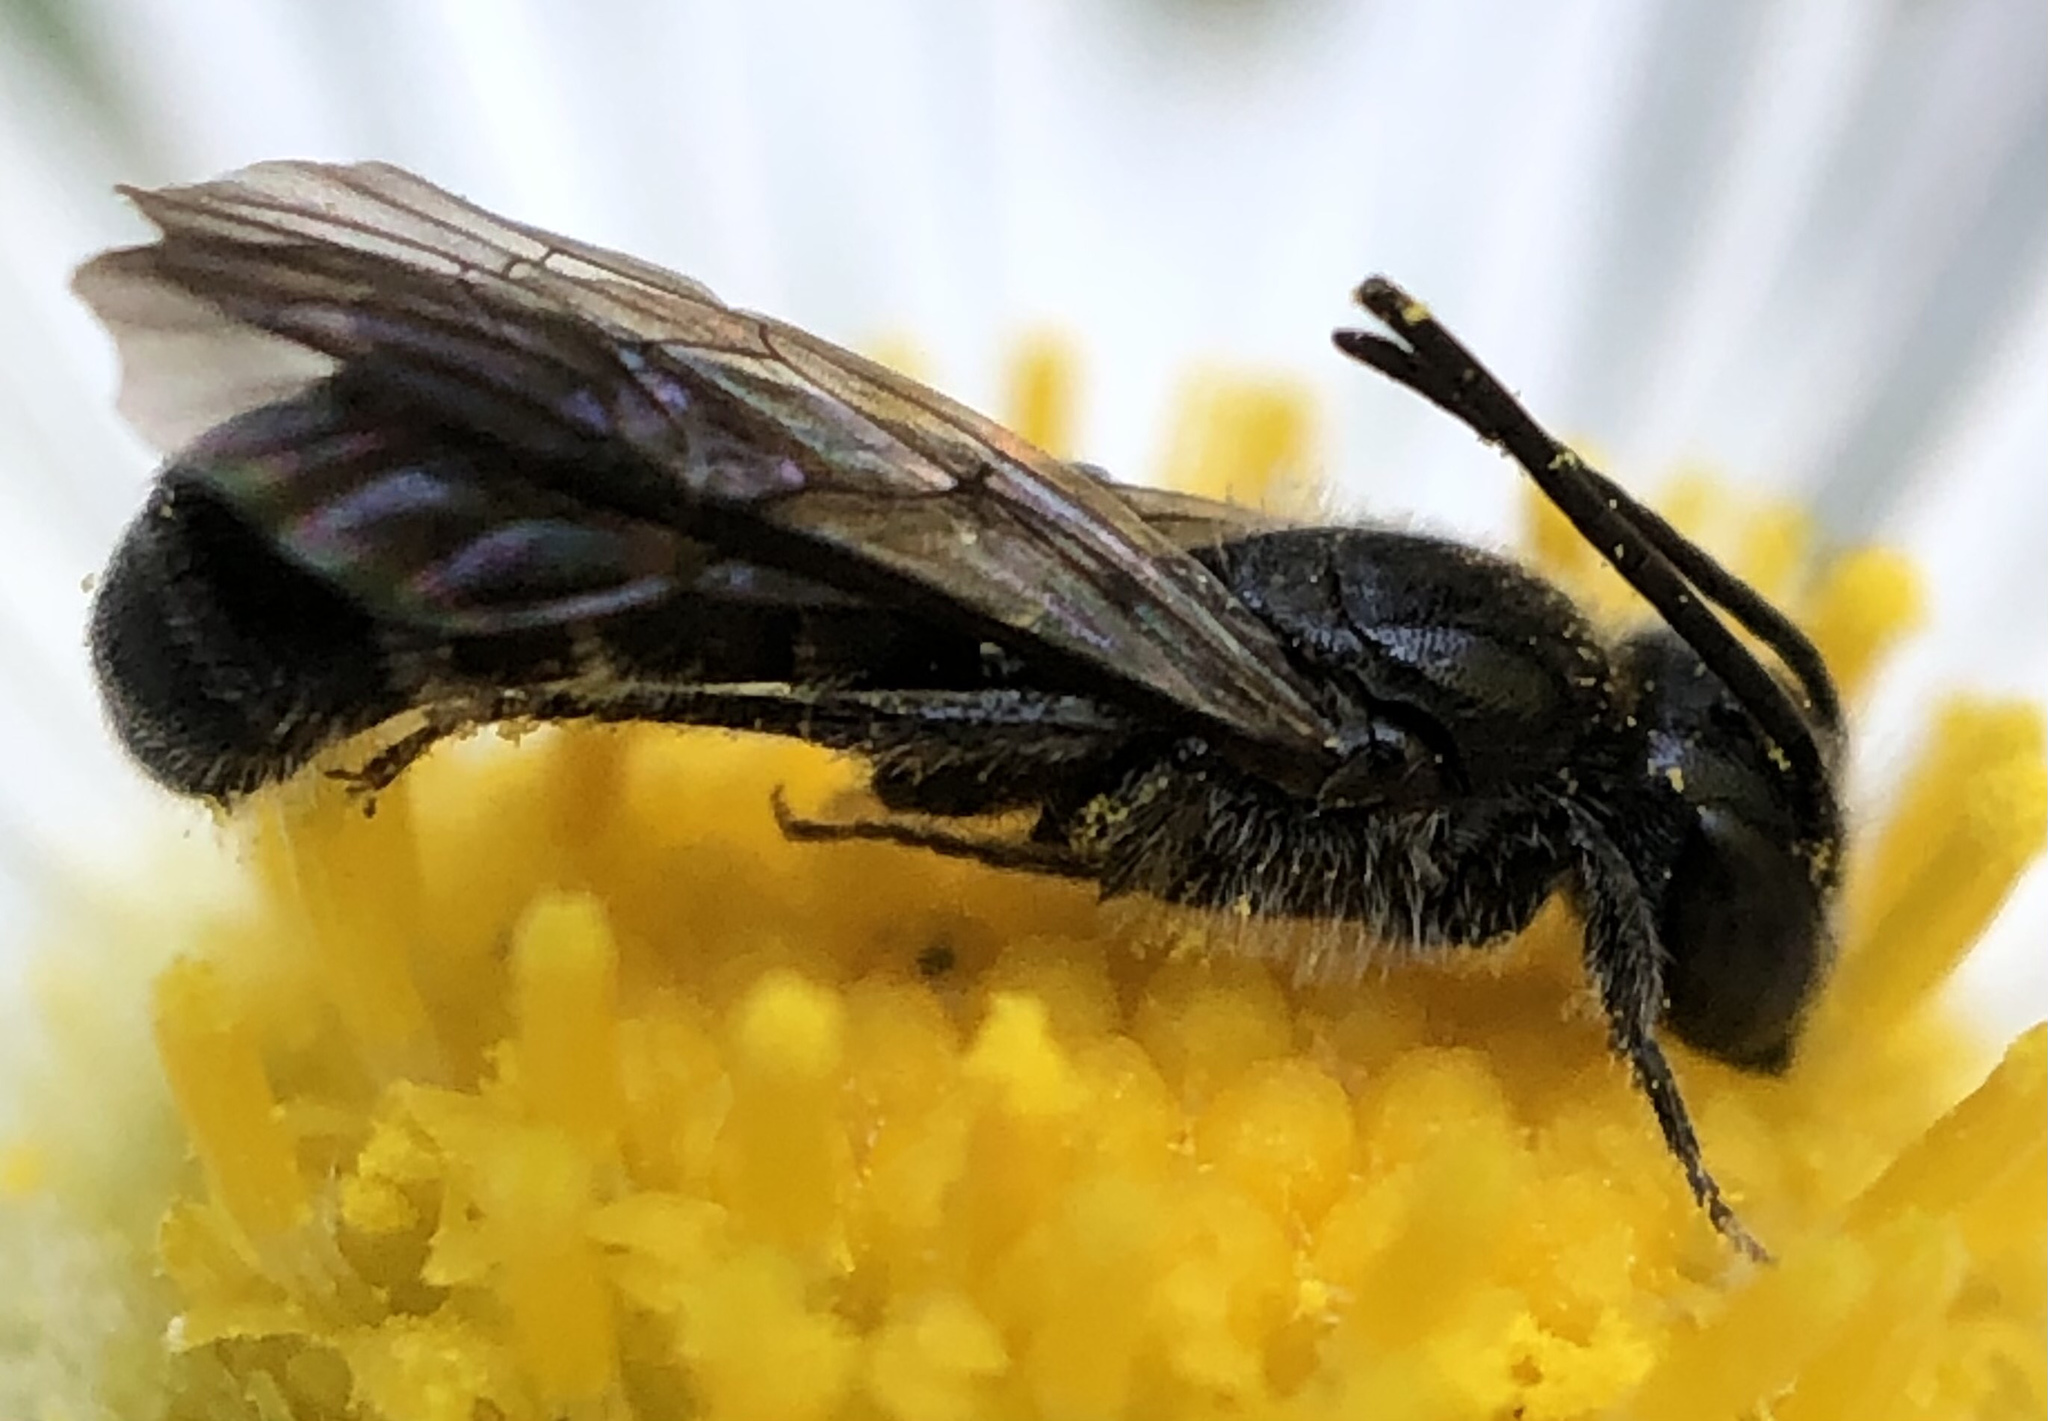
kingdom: Animalia
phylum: Arthropoda
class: Insecta
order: Hymenoptera
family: Megachilidae
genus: Chelostoma
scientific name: Chelostoma philadelphi
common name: Mock-orange scissor bee
